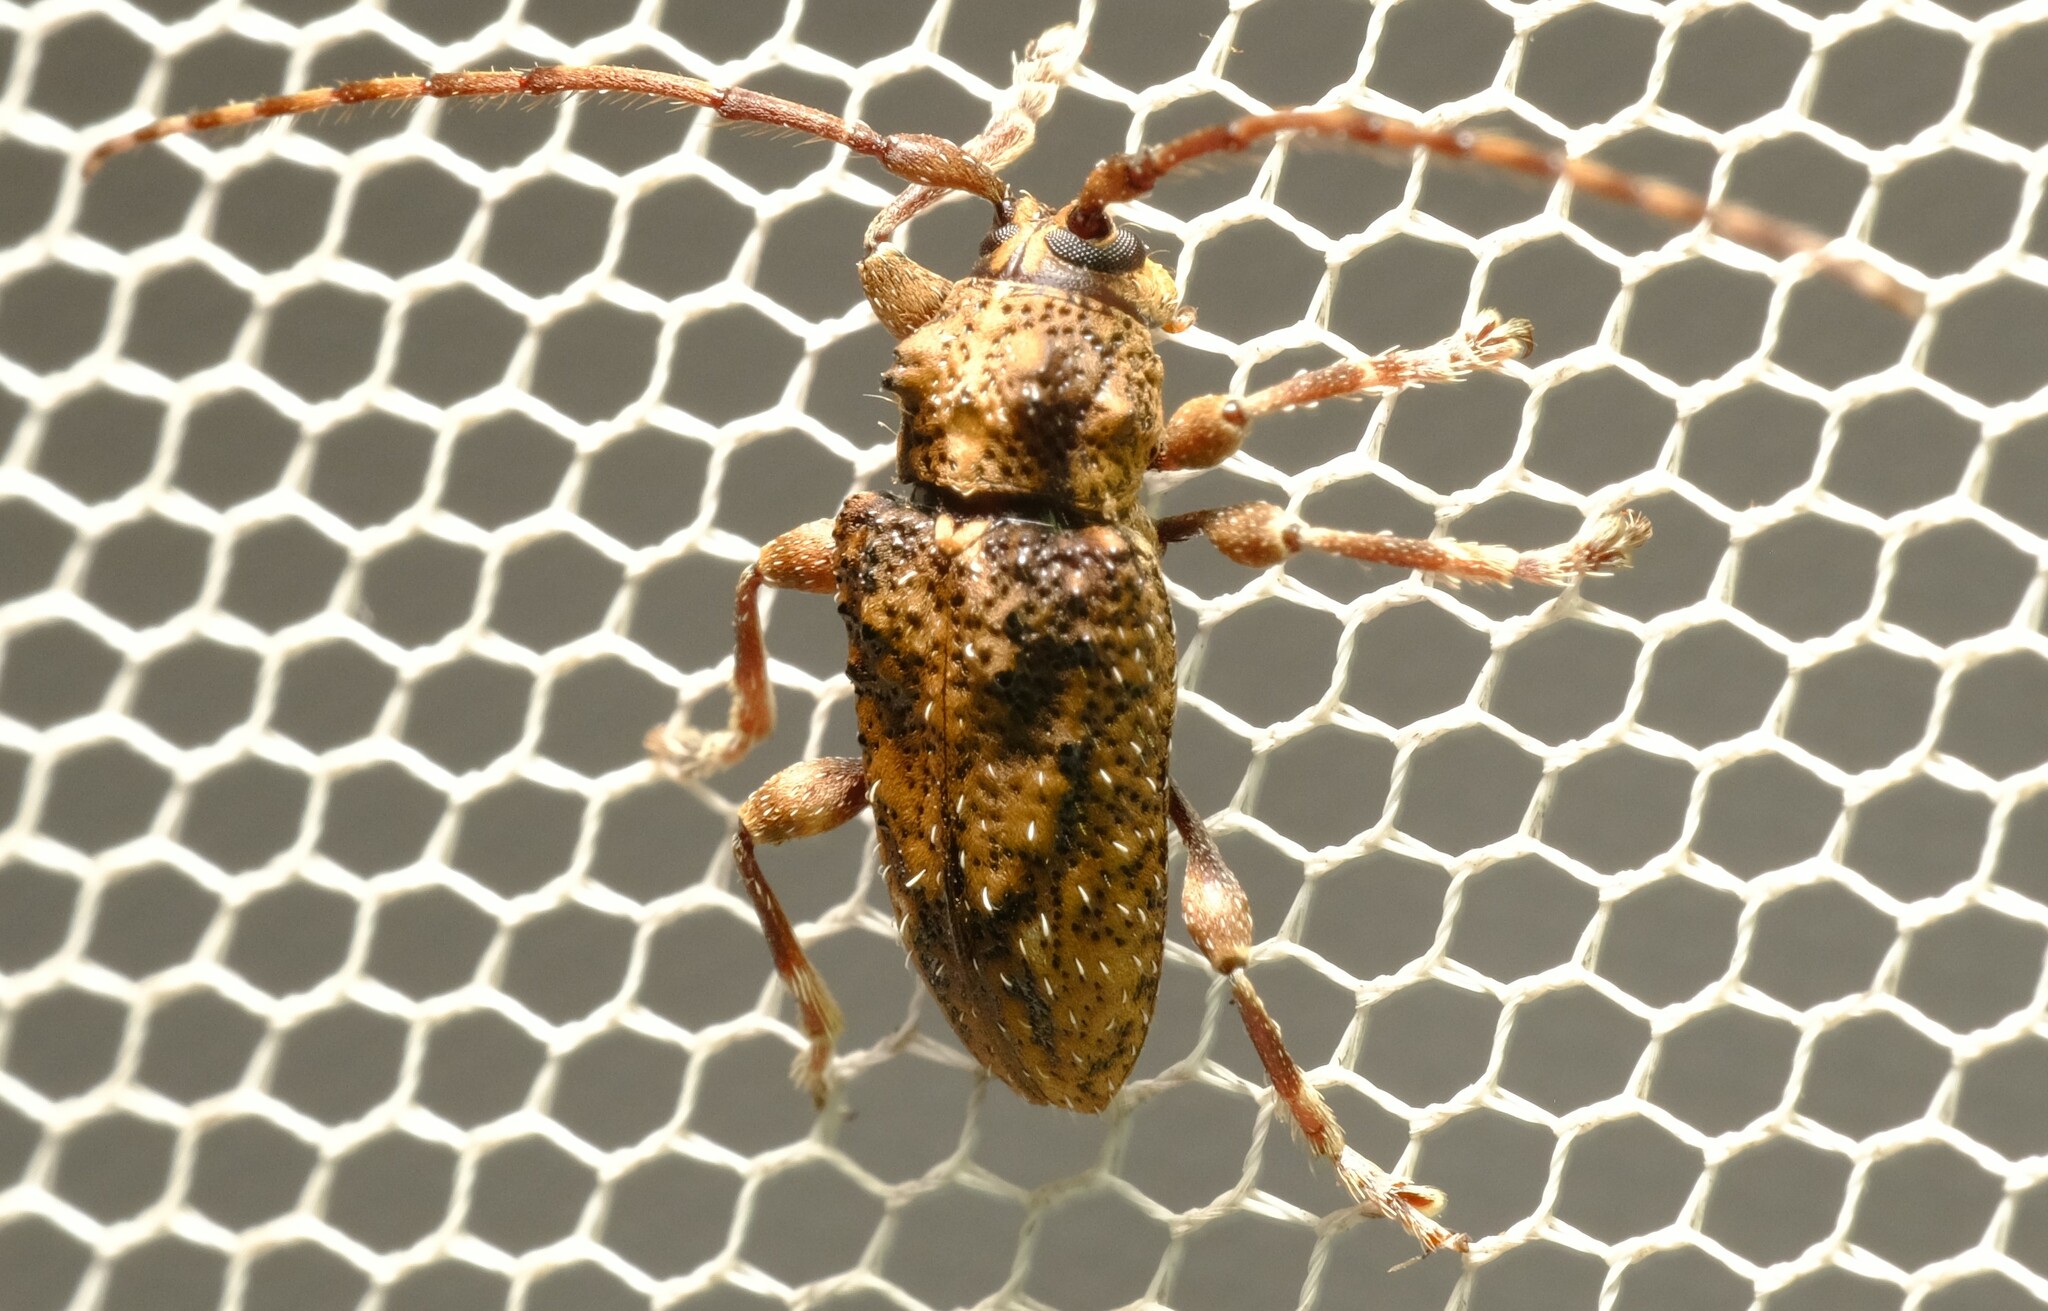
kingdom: Animalia
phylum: Arthropoda
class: Insecta
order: Coleoptera
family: Cerambycidae
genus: Oricopis
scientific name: Oricopis umbrosus
